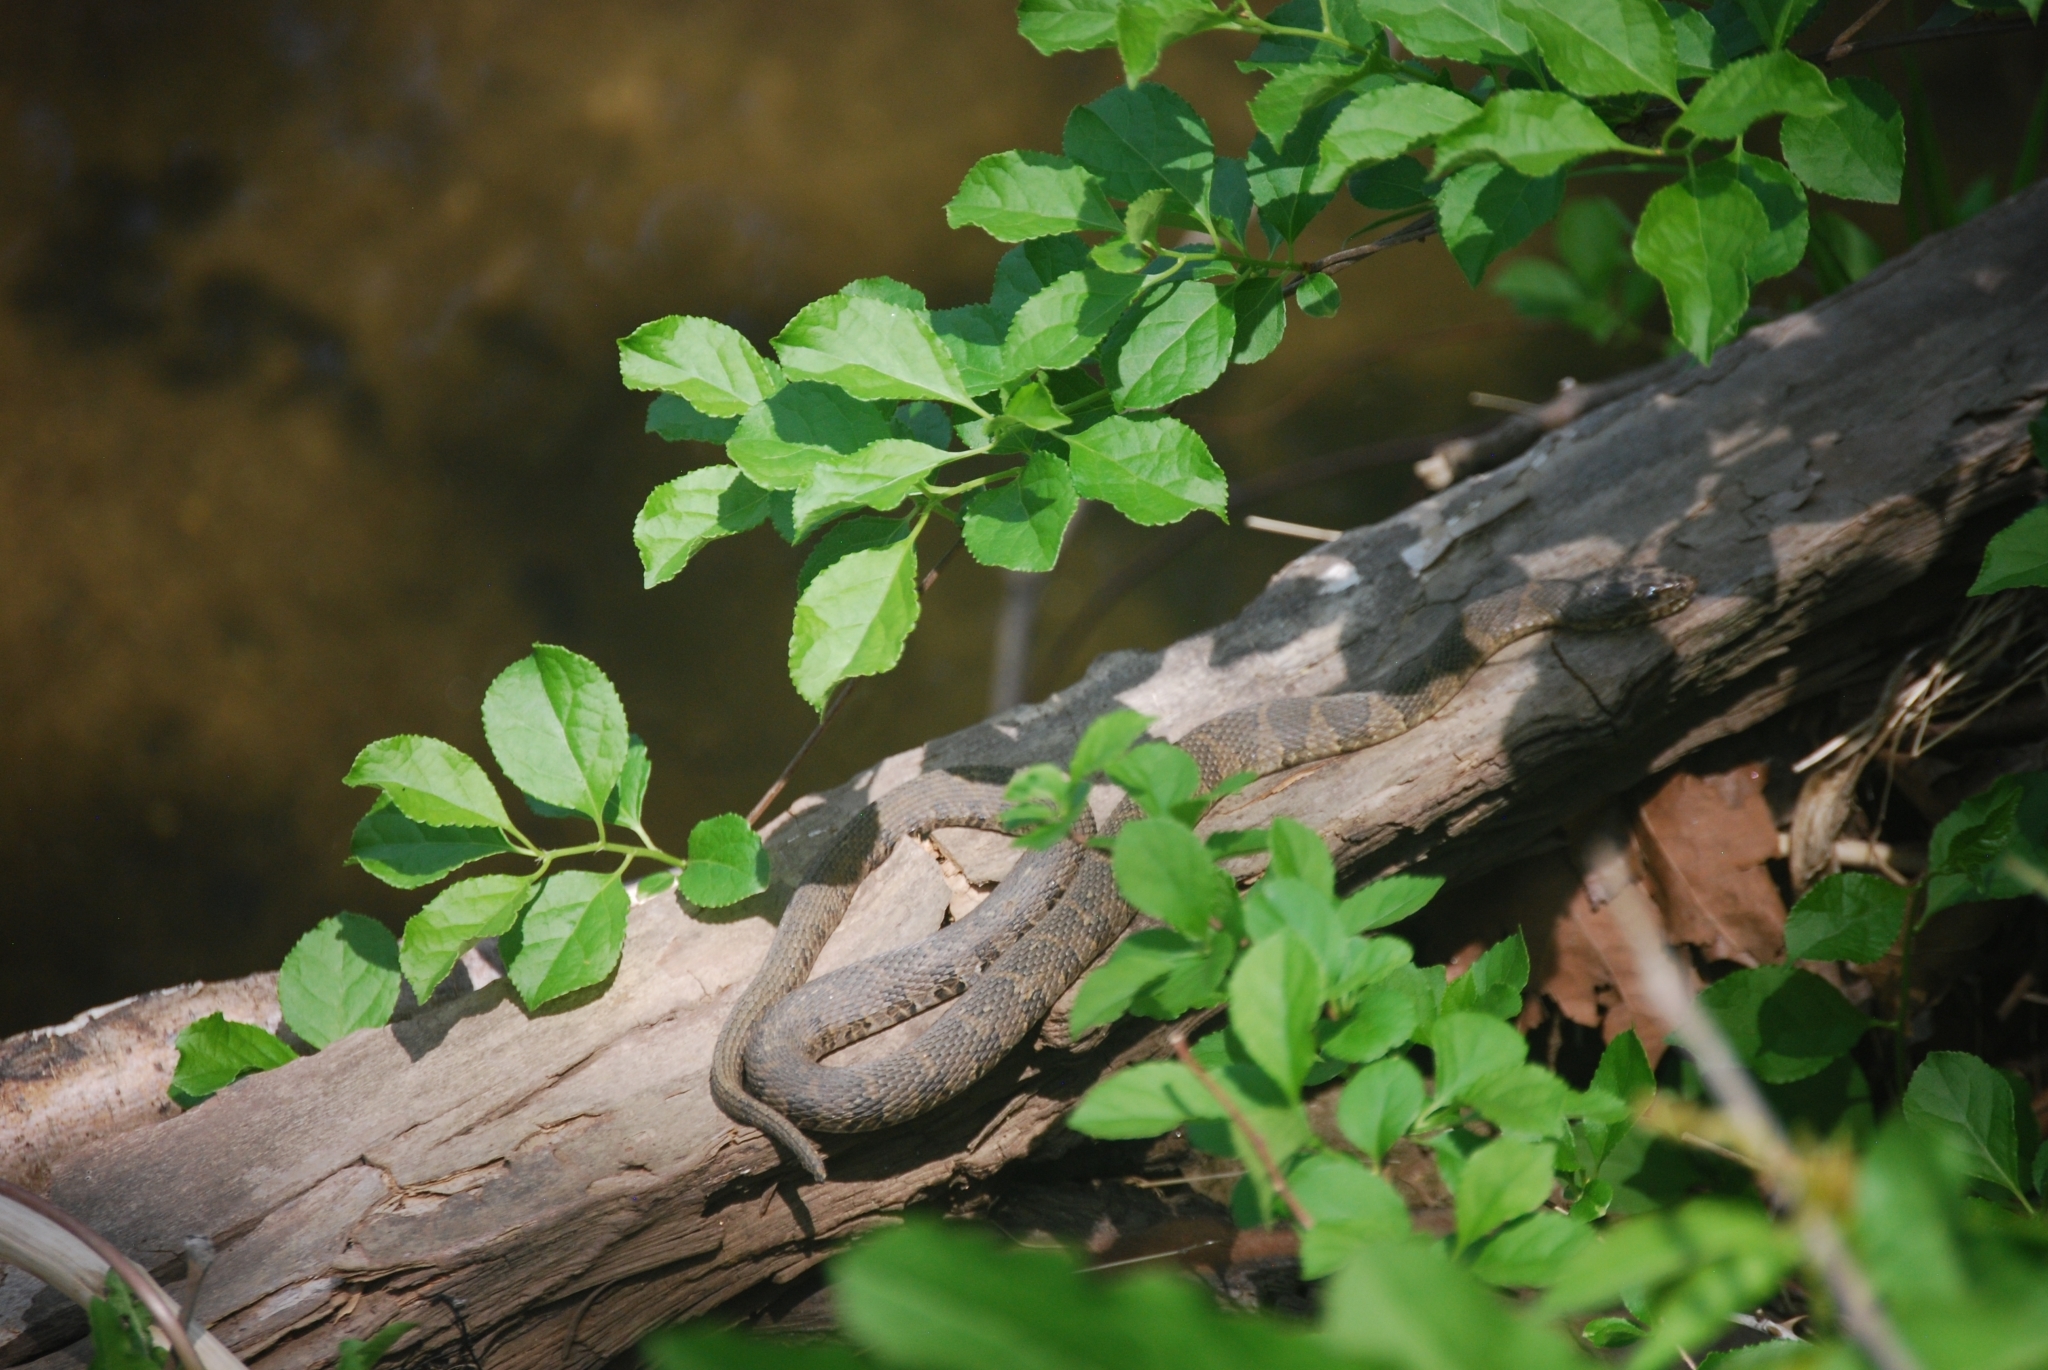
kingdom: Animalia
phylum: Chordata
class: Squamata
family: Colubridae
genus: Nerodia
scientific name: Nerodia sipedon
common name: Northern water snake
